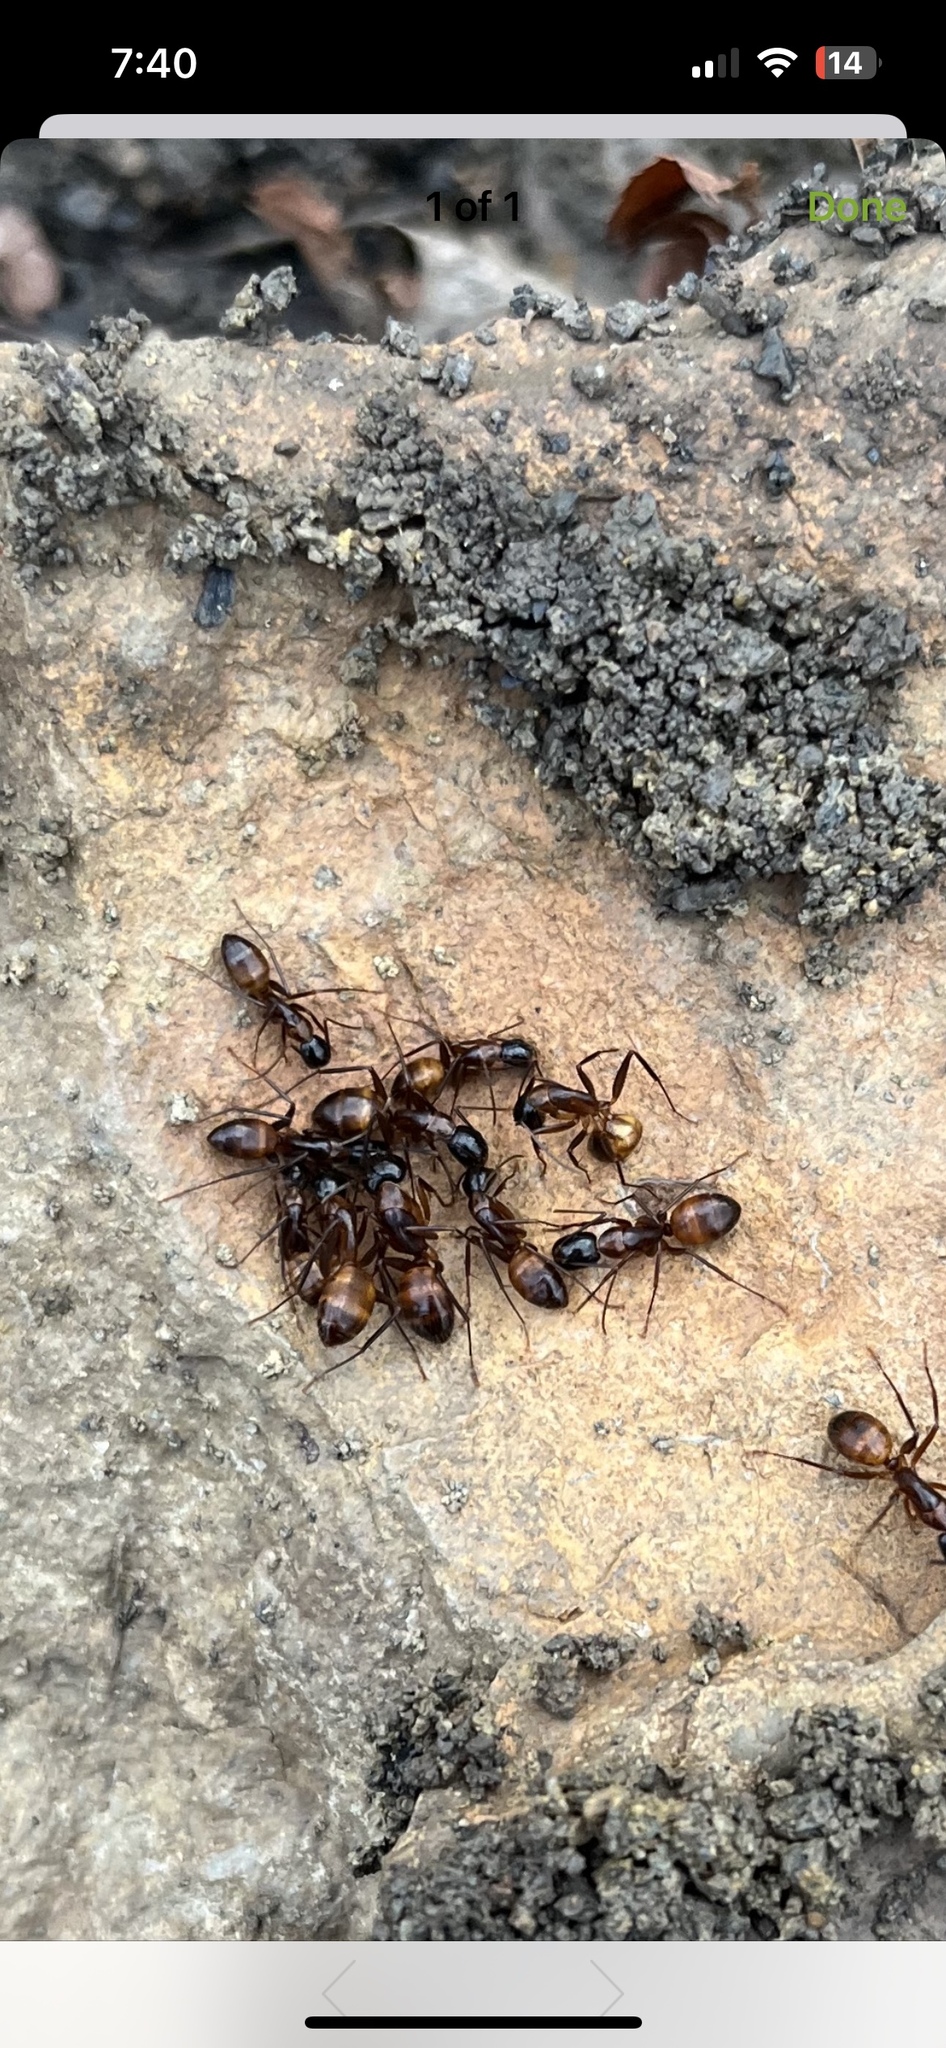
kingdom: Animalia
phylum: Arthropoda
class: Insecta
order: Hymenoptera
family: Formicidae
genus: Camponotus
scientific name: Camponotus americanus
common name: American carpenter ant
